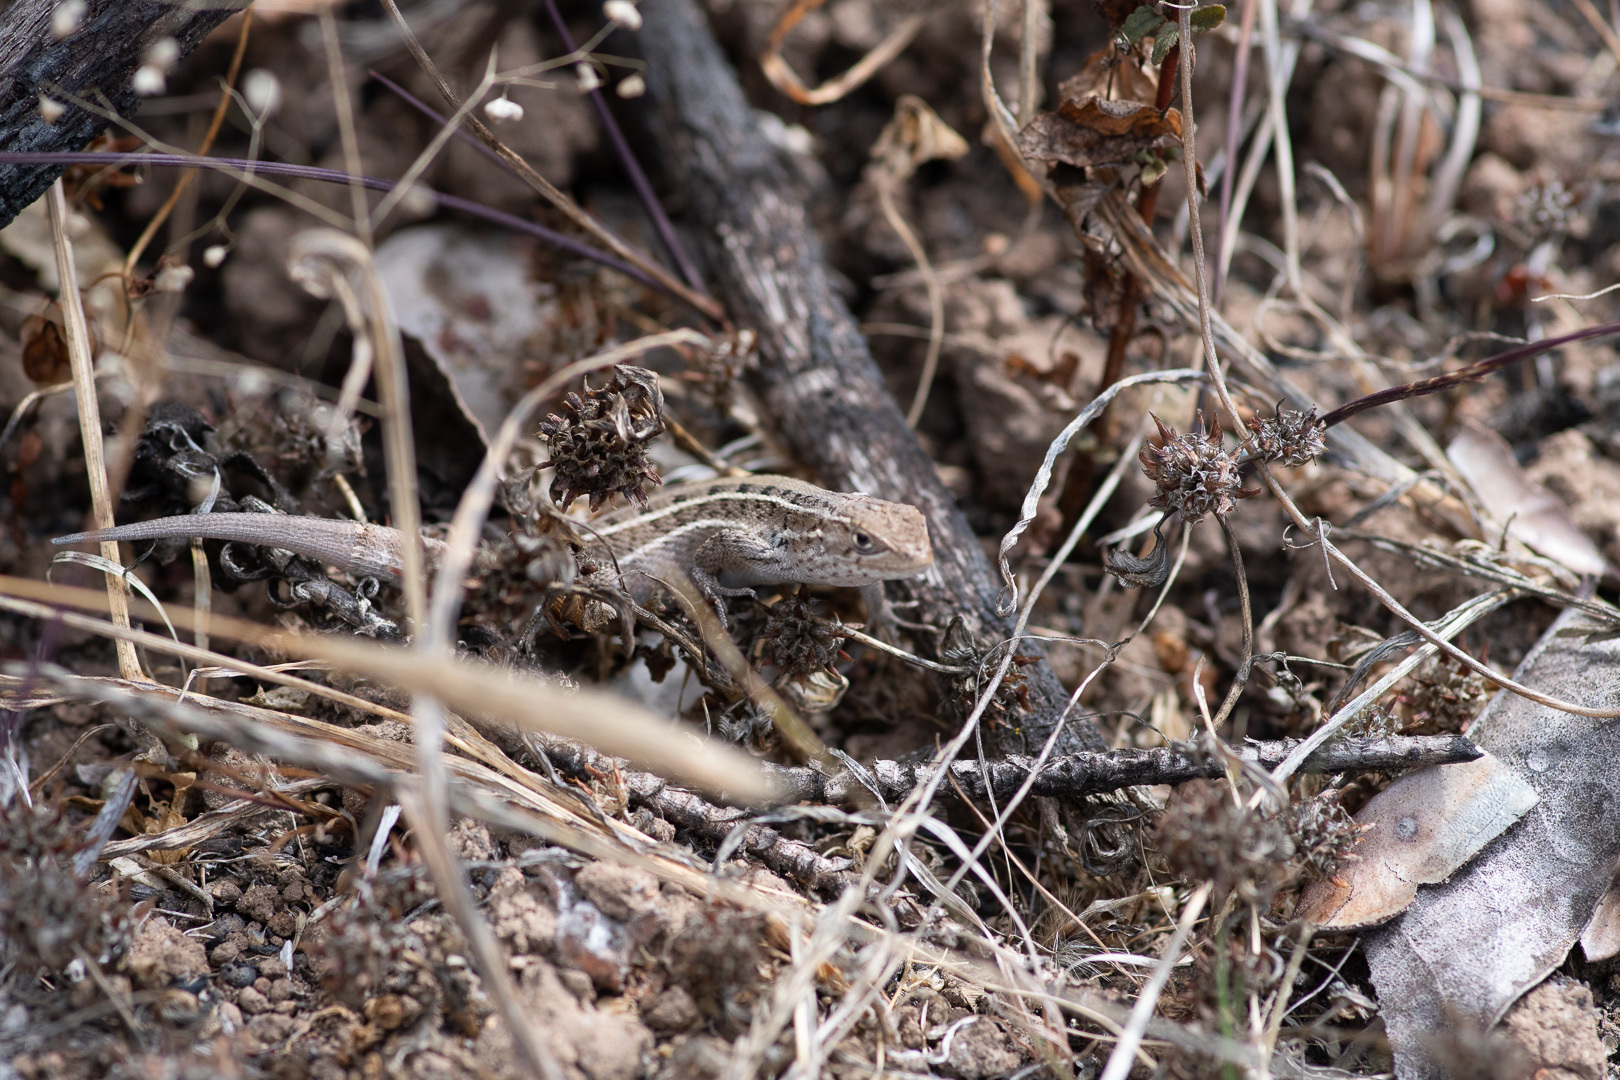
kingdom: Animalia
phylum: Chordata
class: Squamata
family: Liolaemidae
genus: Liolaemus
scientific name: Liolaemus lemniscatus
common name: Wreath tree iguana
